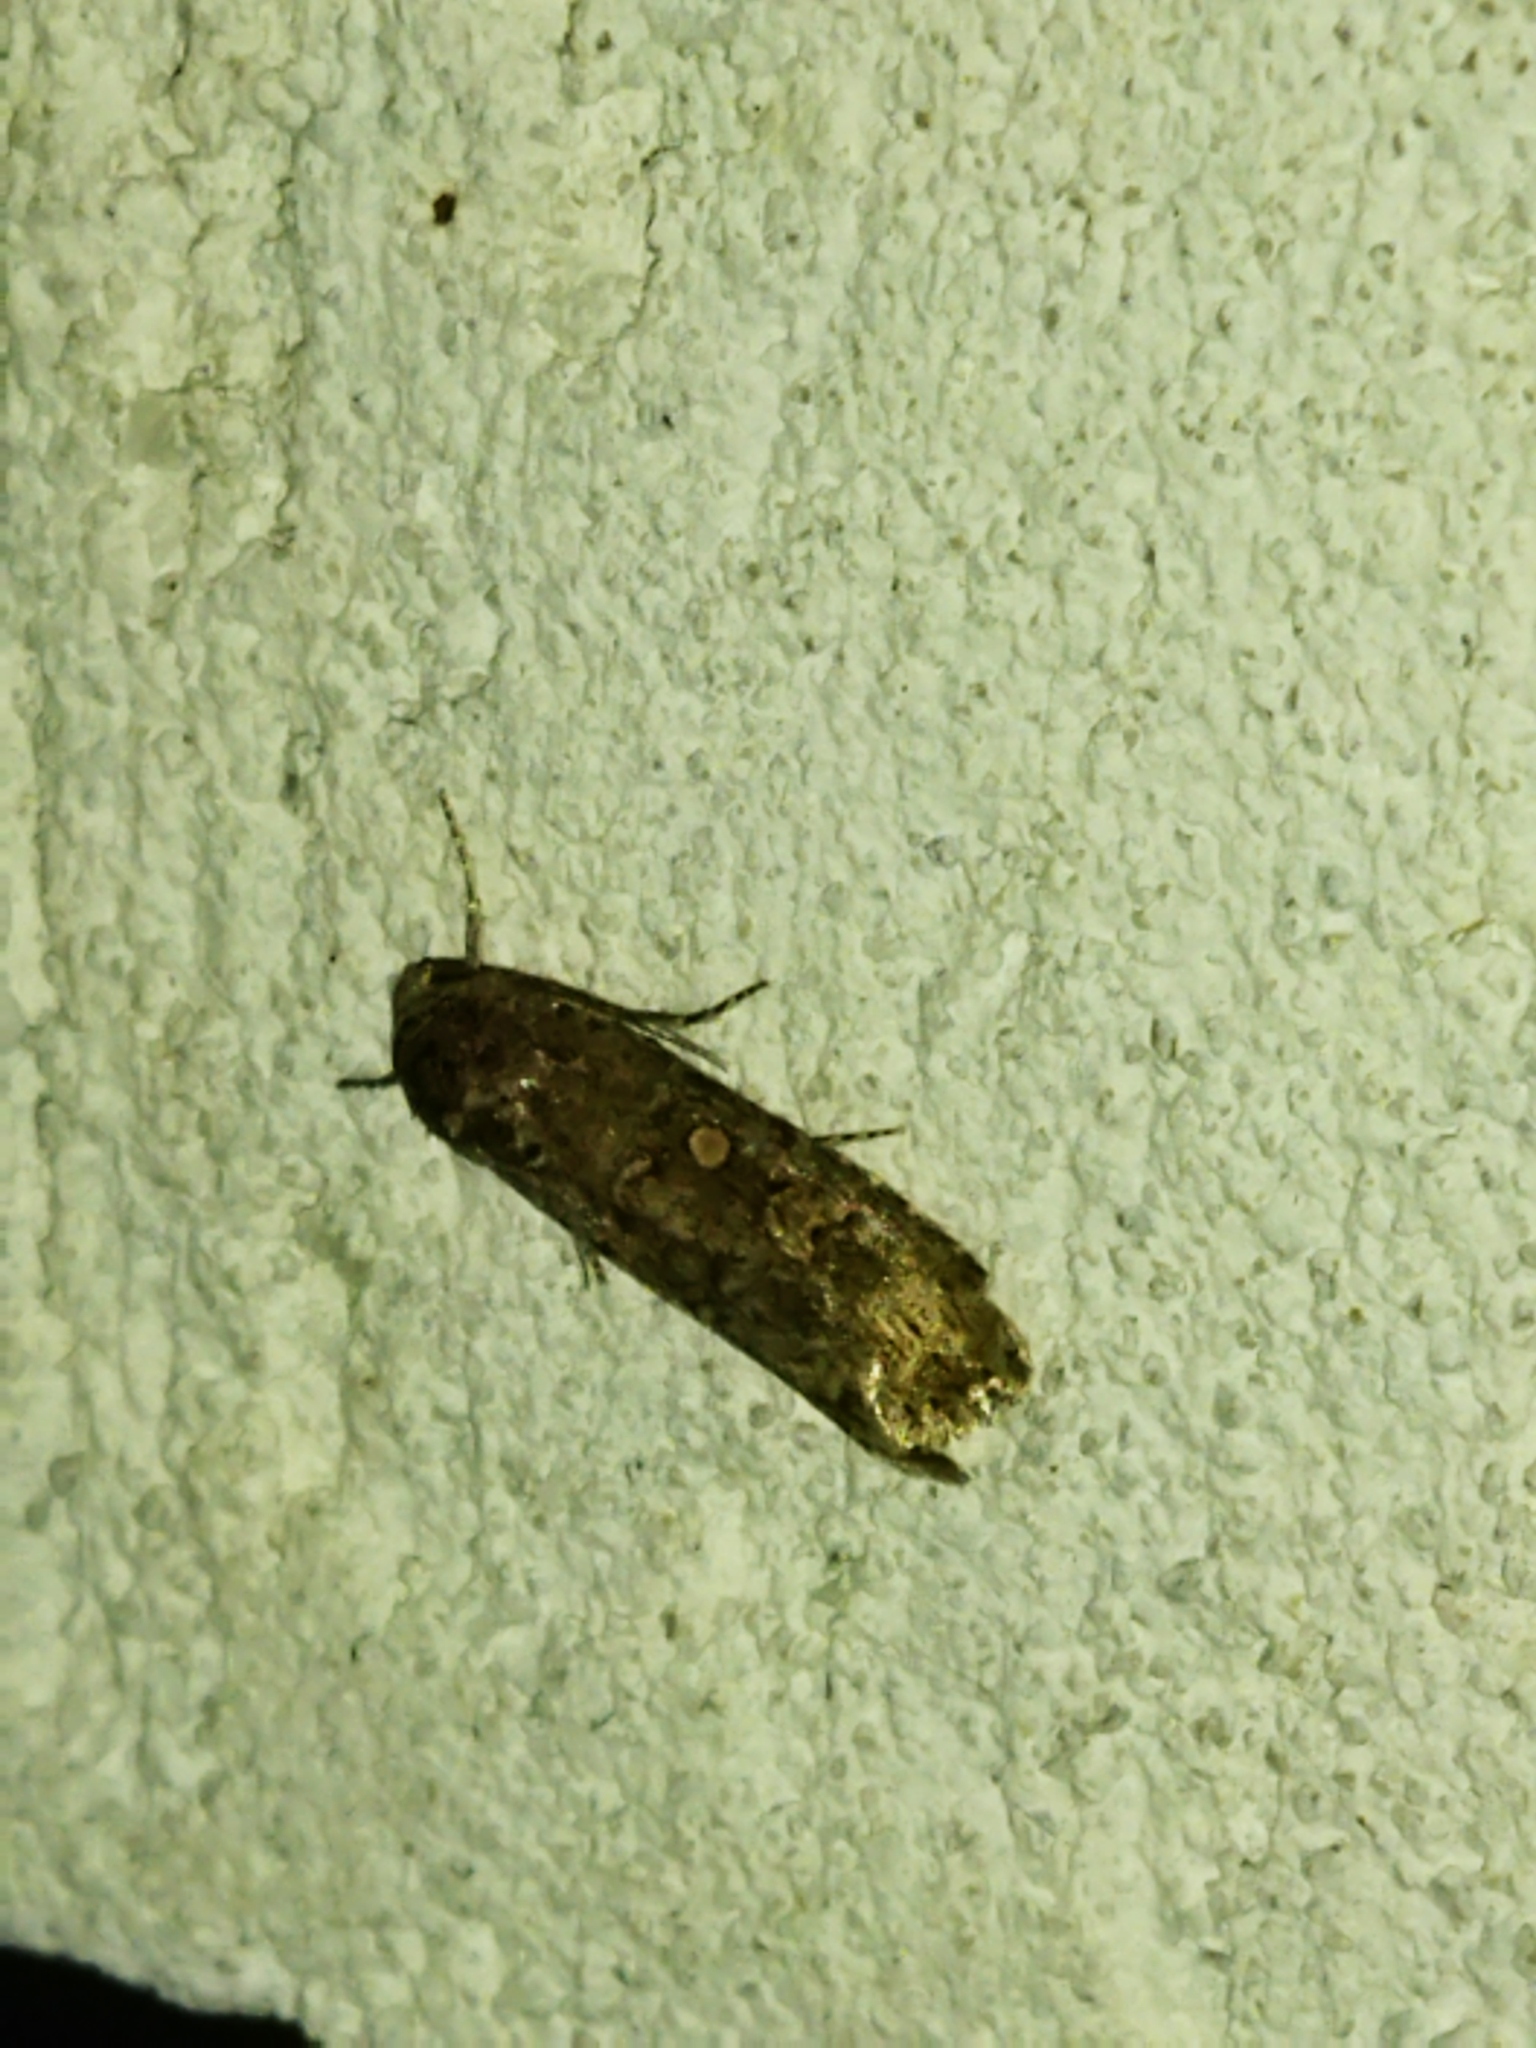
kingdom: Animalia
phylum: Arthropoda
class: Insecta
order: Lepidoptera
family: Noctuidae
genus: Spodoptera
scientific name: Spodoptera exigua
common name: Beet armyworm
